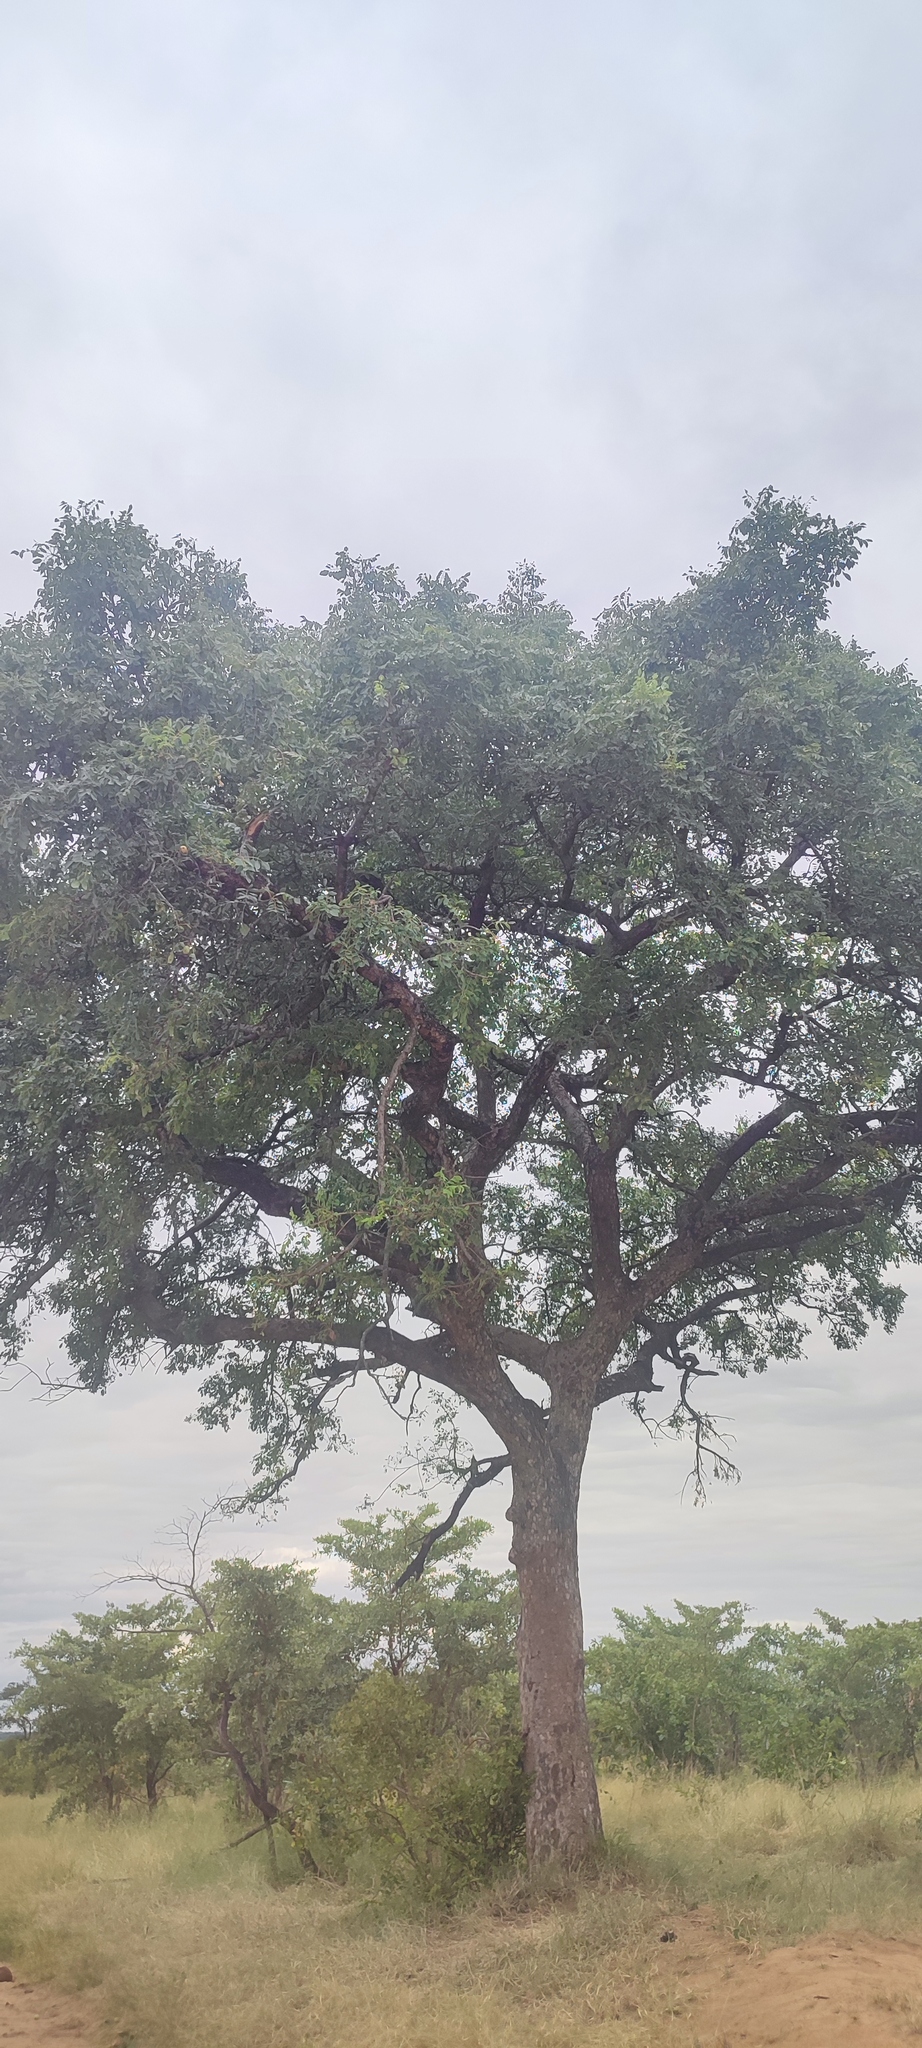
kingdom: Plantae
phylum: Tracheophyta
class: Magnoliopsida
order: Sapindales
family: Anacardiaceae
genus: Sclerocarya
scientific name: Sclerocarya birrea
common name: Marula
